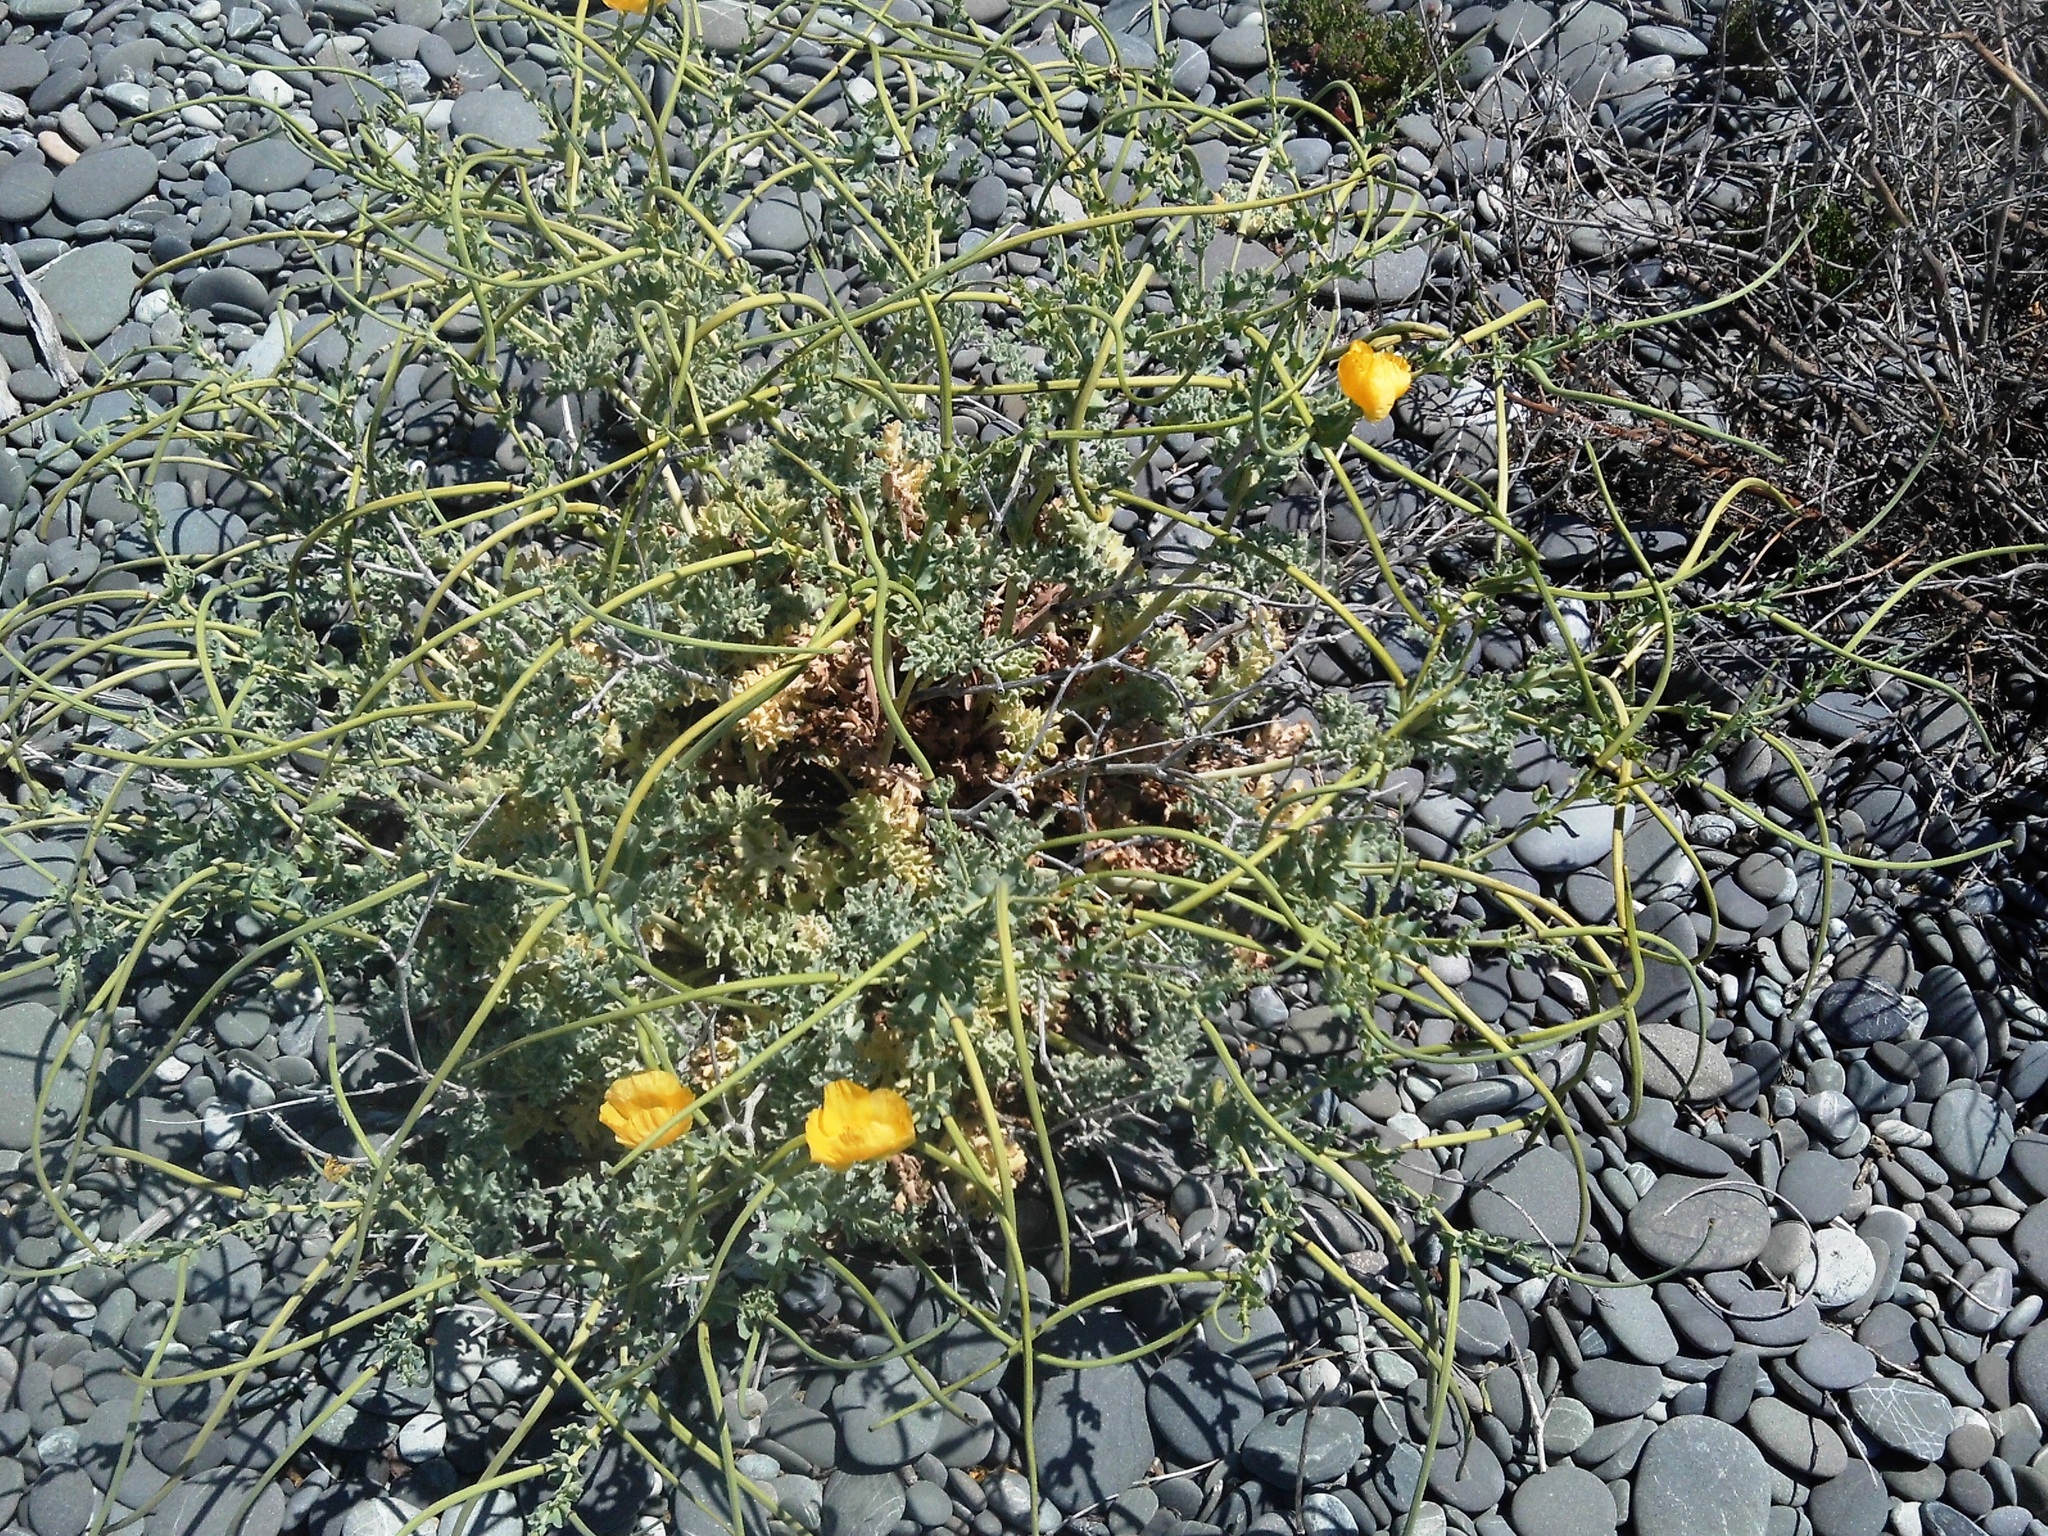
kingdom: Plantae
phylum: Tracheophyta
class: Magnoliopsida
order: Ranunculales
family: Papaveraceae
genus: Glaucium
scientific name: Glaucium flavum
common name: Yellow horned-poppy
